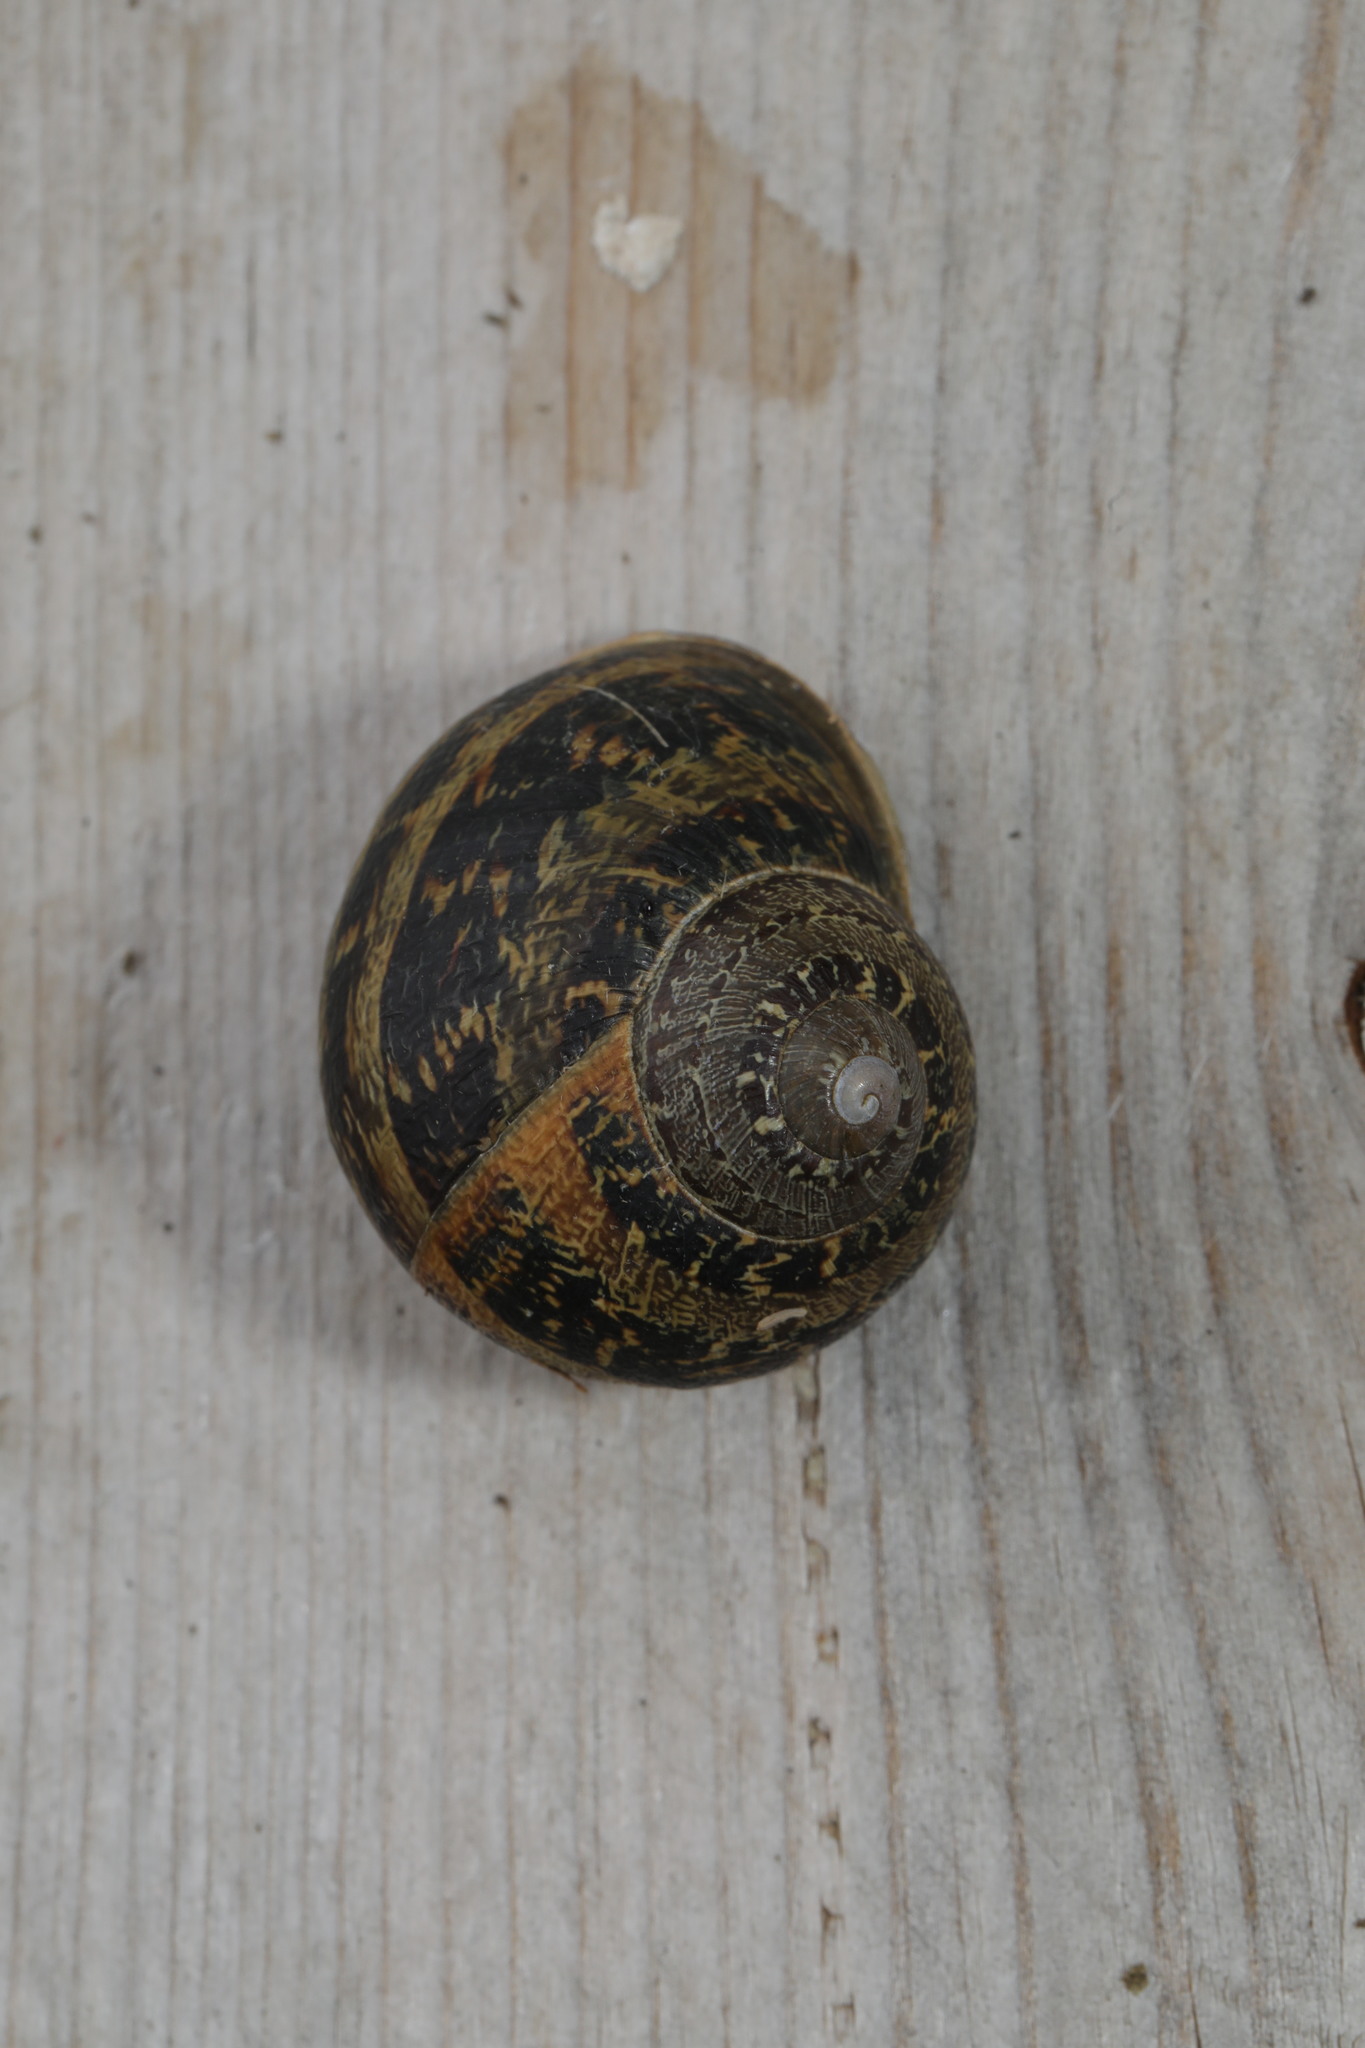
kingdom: Animalia
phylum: Mollusca
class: Gastropoda
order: Stylommatophora
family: Helicidae
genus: Cornu
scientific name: Cornu aspersum
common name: Brown garden snail
